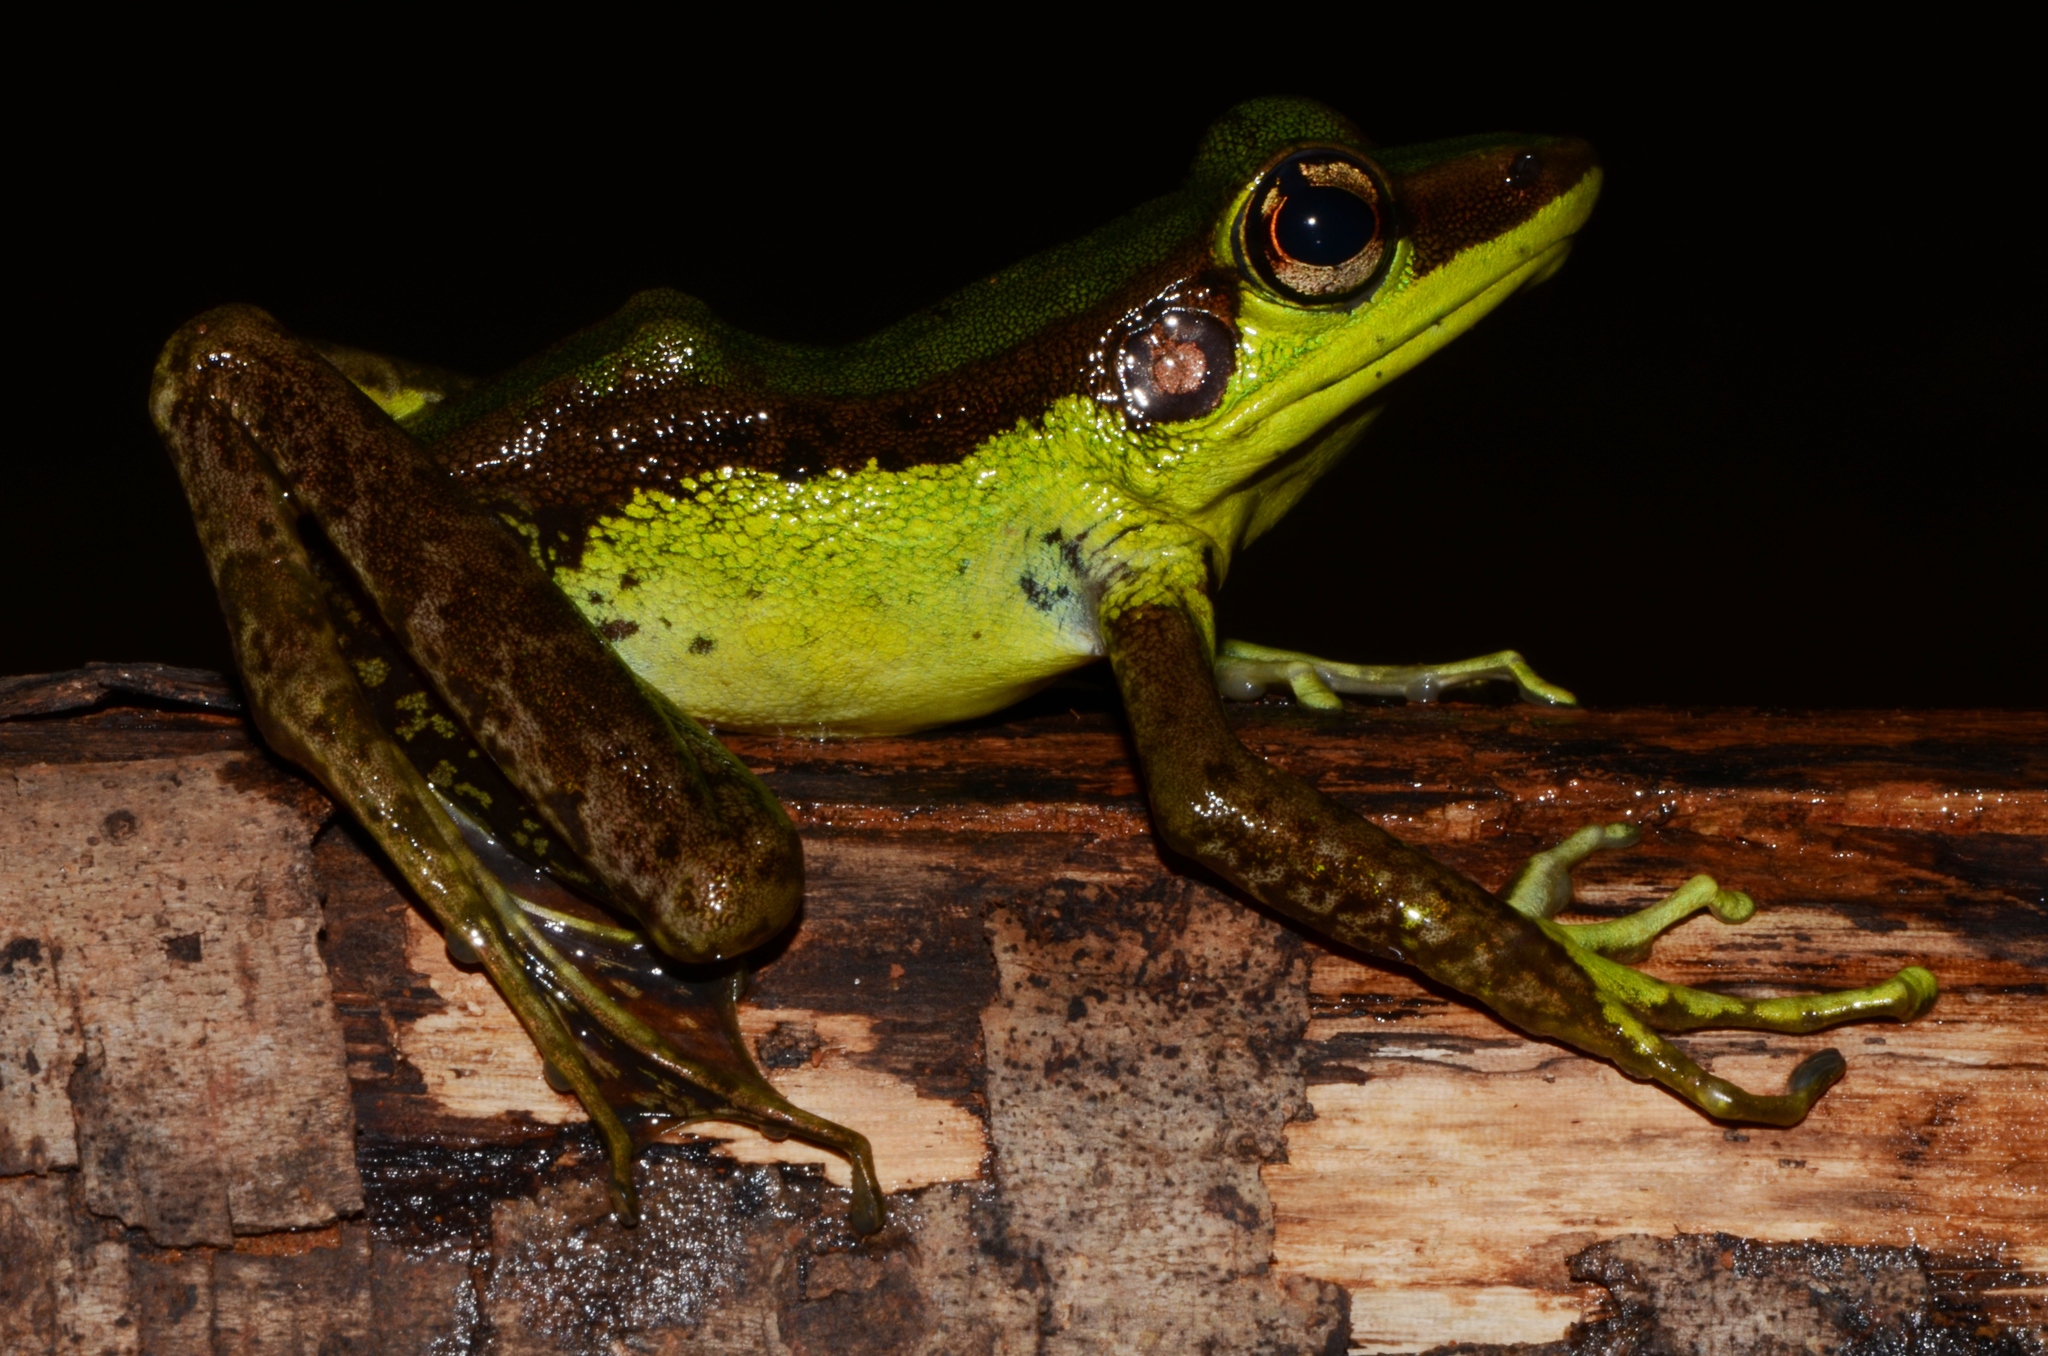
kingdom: Animalia
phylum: Chordata
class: Amphibia
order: Anura
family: Ranidae
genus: Amnirana
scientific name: Amnirana lepus
